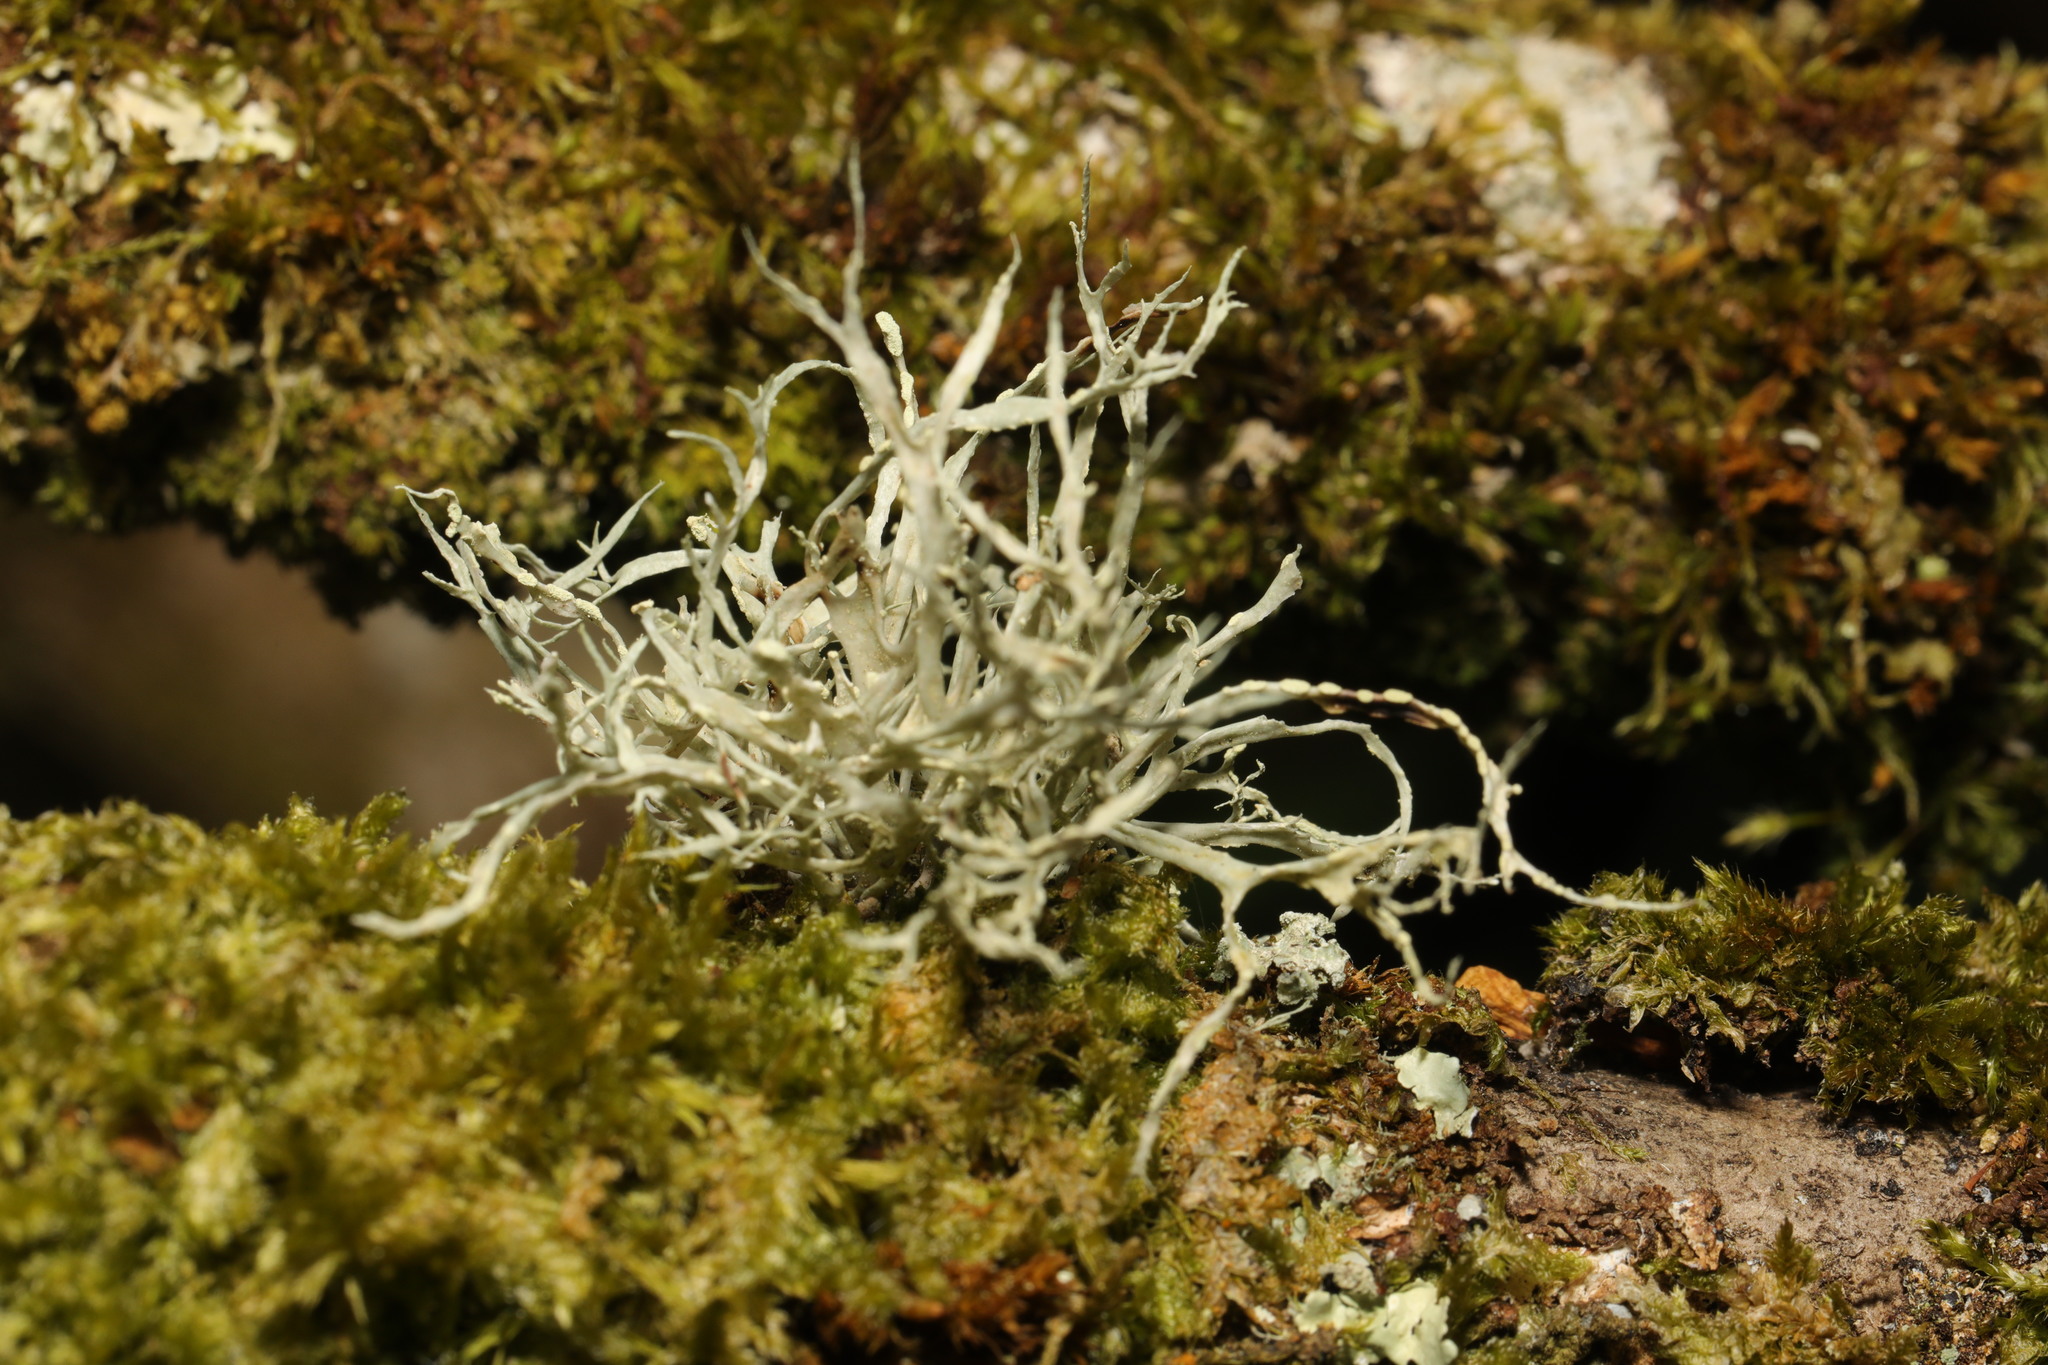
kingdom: Fungi
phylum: Ascomycota
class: Lecanoromycetes
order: Lecanorales
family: Ramalinaceae
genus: Ramalina
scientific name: Ramalina farinacea
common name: Farinose cartilage lichen
